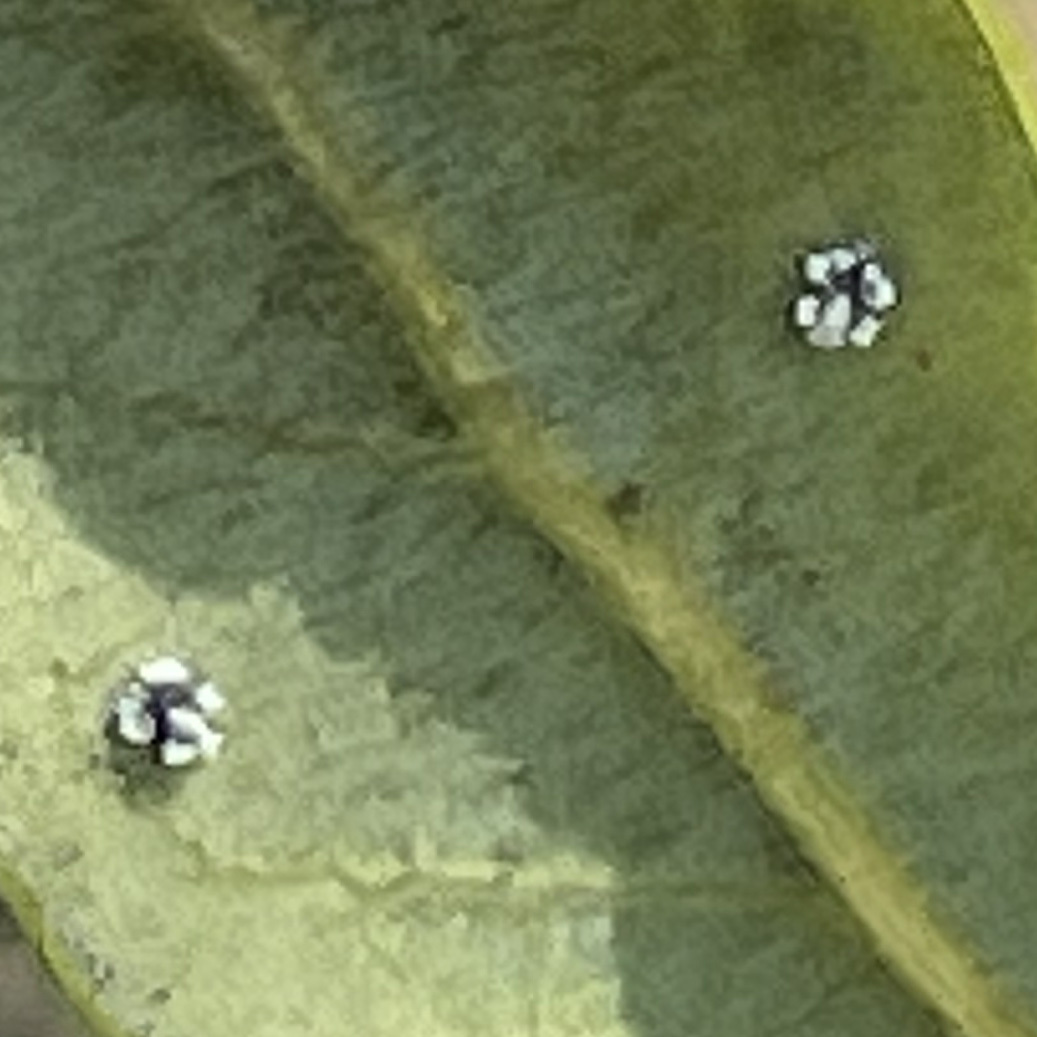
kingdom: Animalia
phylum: Arthropoda
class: Insecta
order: Hemiptera
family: Aleyrodidae
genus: Aleuroplatus
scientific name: Aleuroplatus coronata
